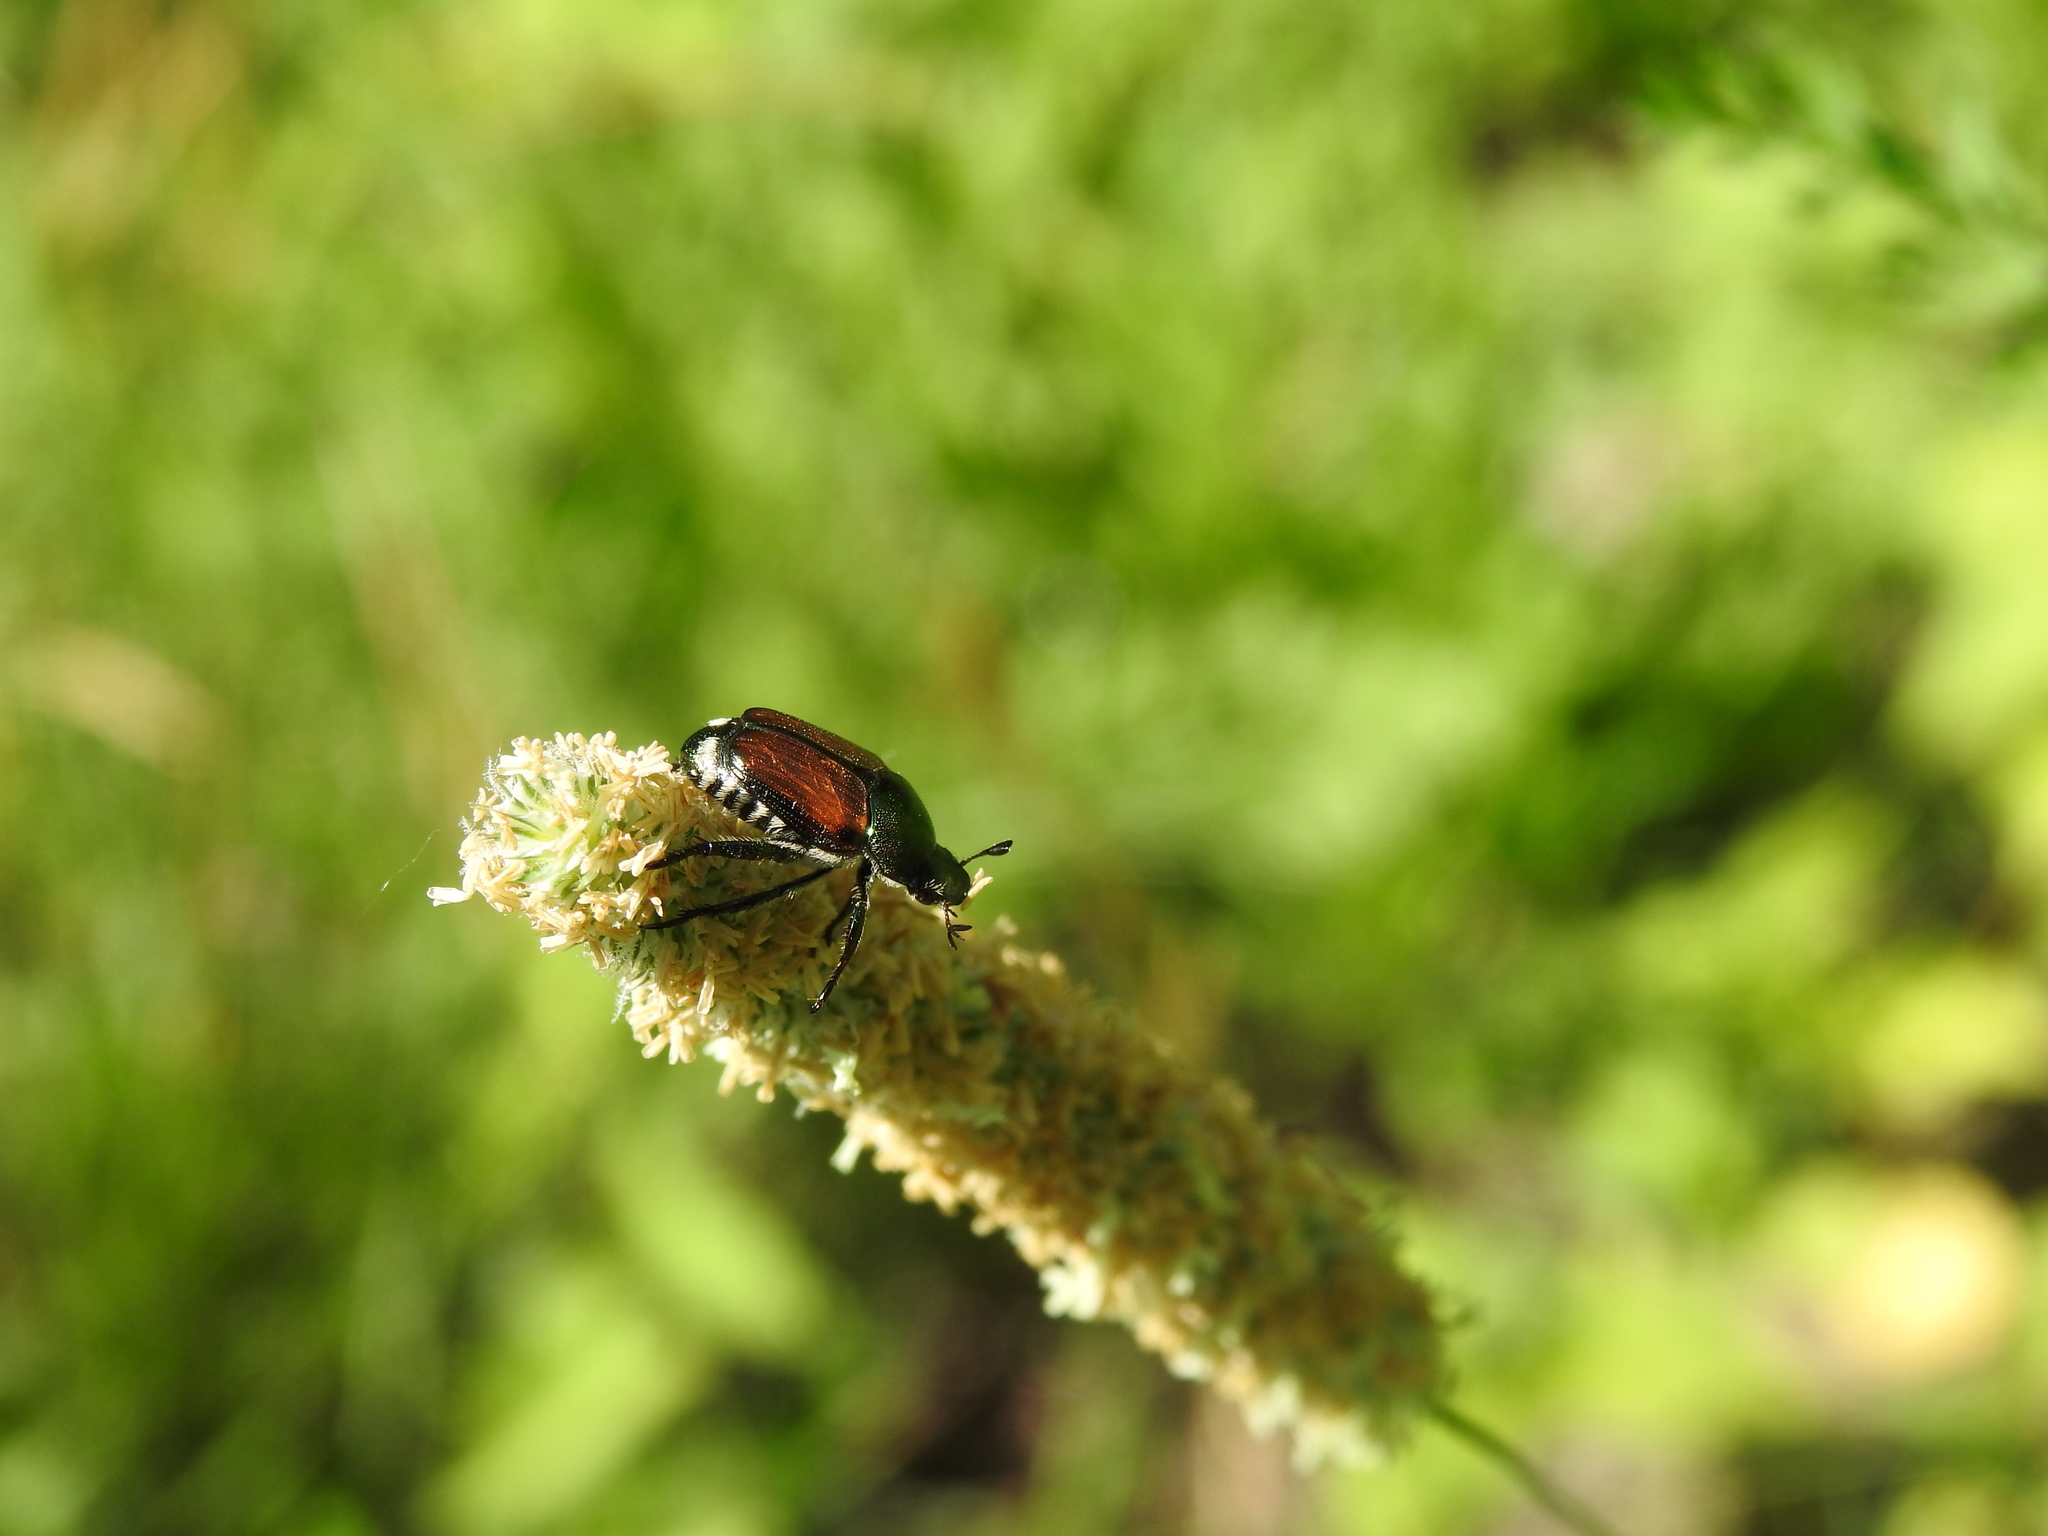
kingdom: Animalia
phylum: Arthropoda
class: Insecta
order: Coleoptera
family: Scarabaeidae
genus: Popillia
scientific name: Popillia japonica
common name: Japanese beetle
